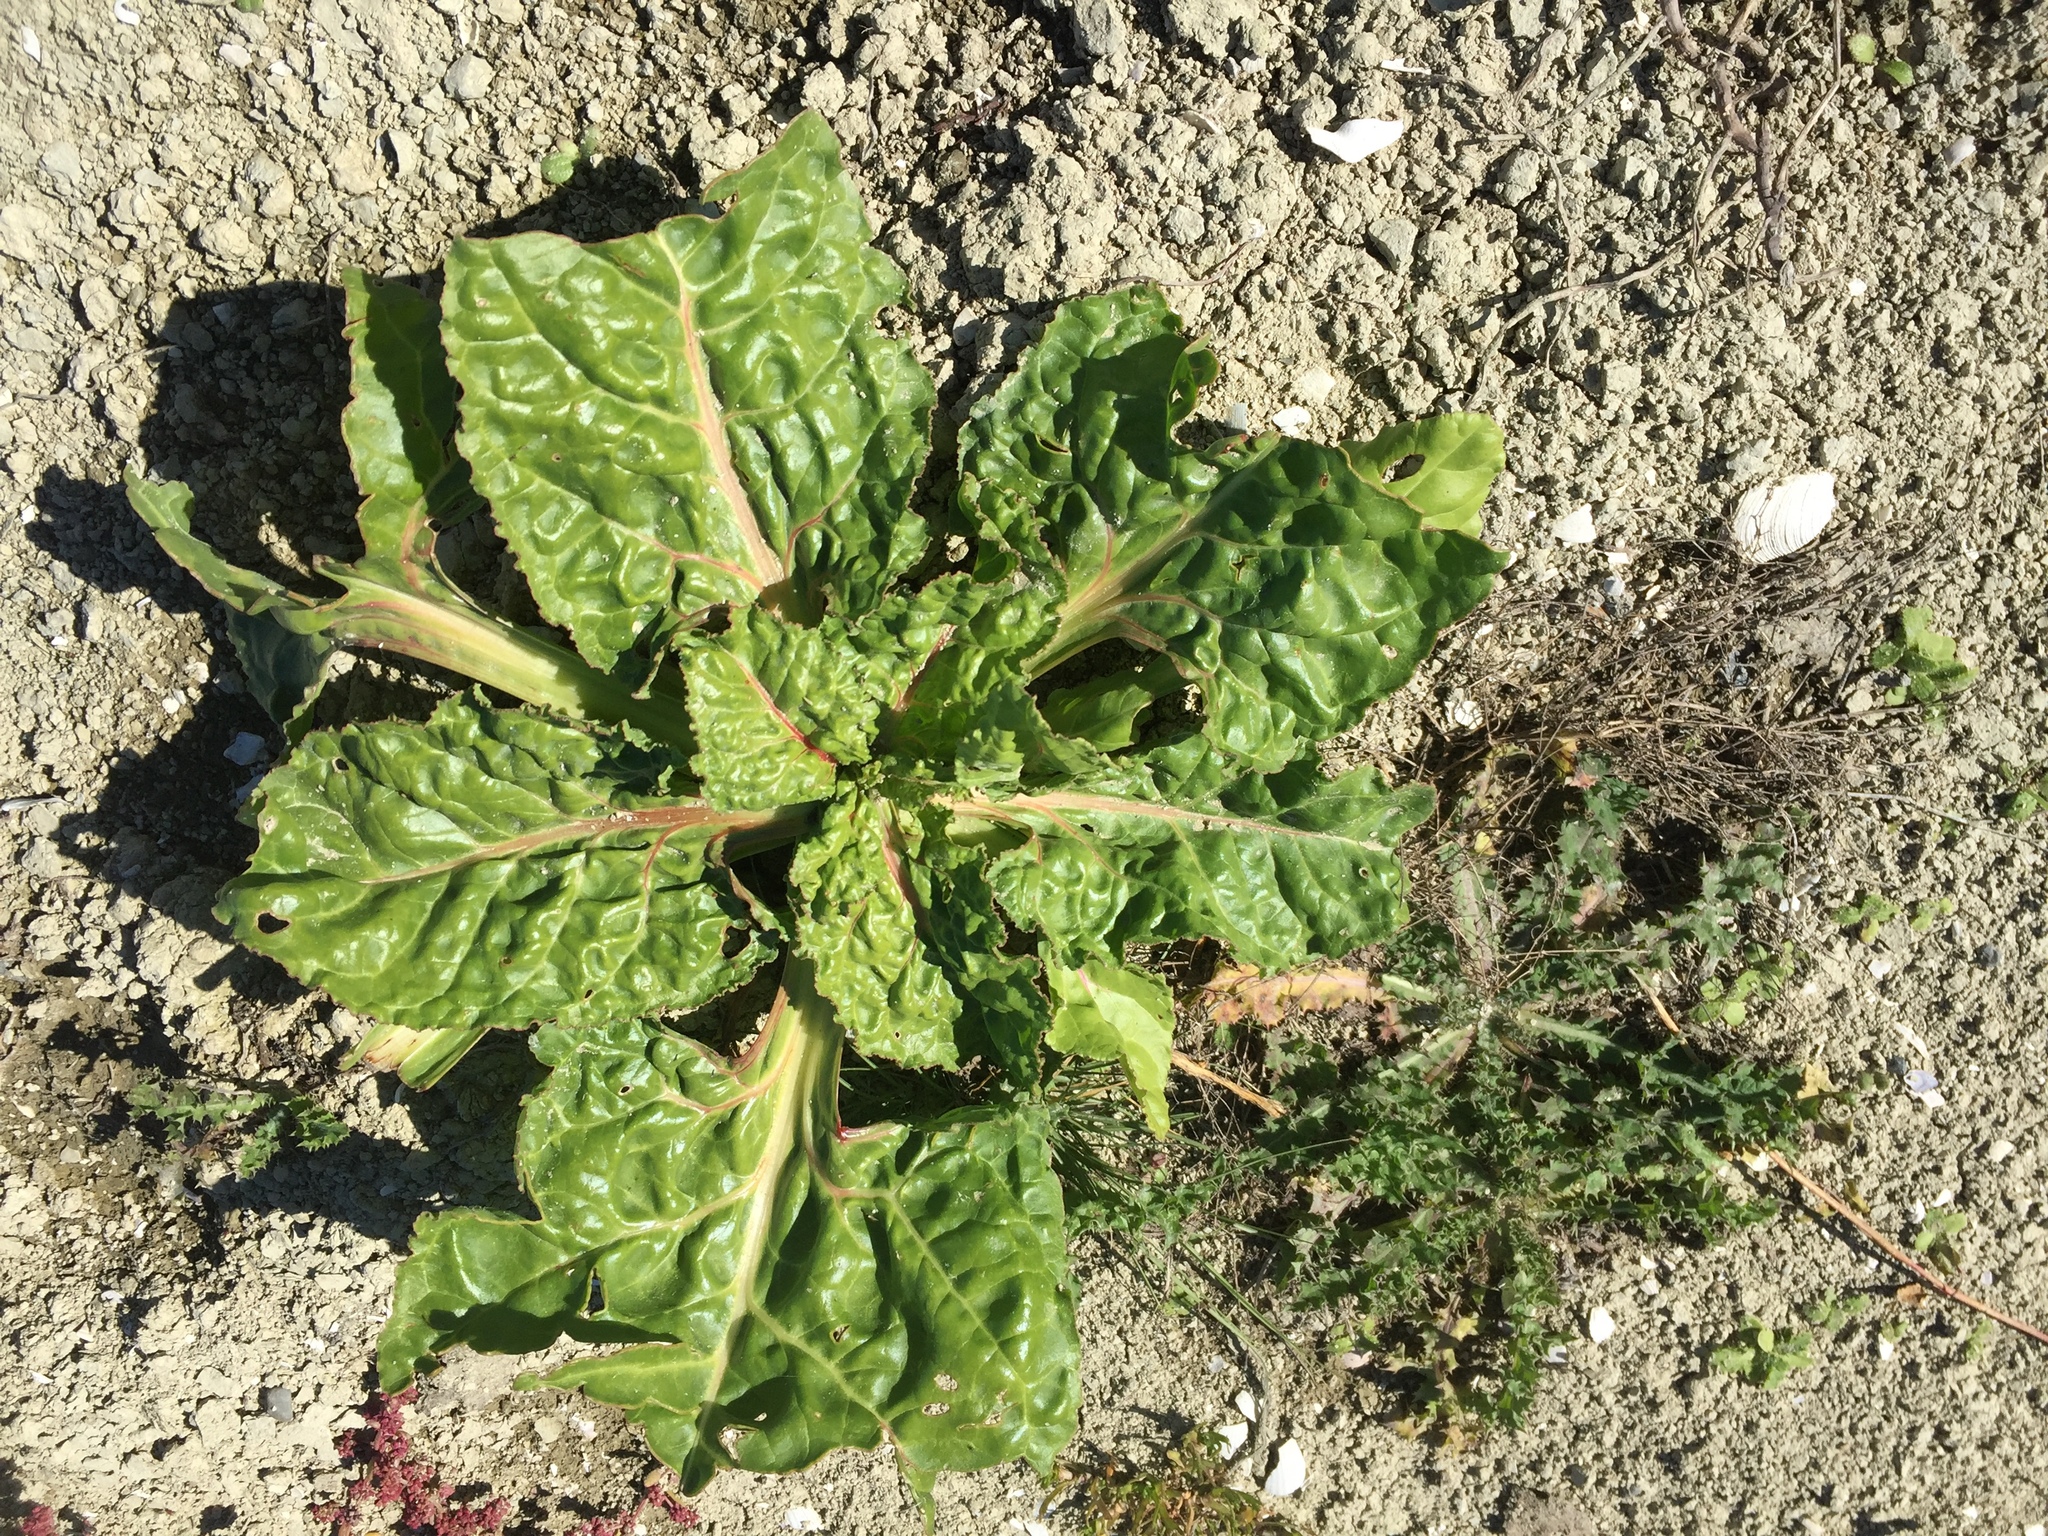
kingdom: Plantae
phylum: Tracheophyta
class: Magnoliopsida
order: Caryophyllales
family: Amaranthaceae
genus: Beta
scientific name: Beta vulgaris
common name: Beet
